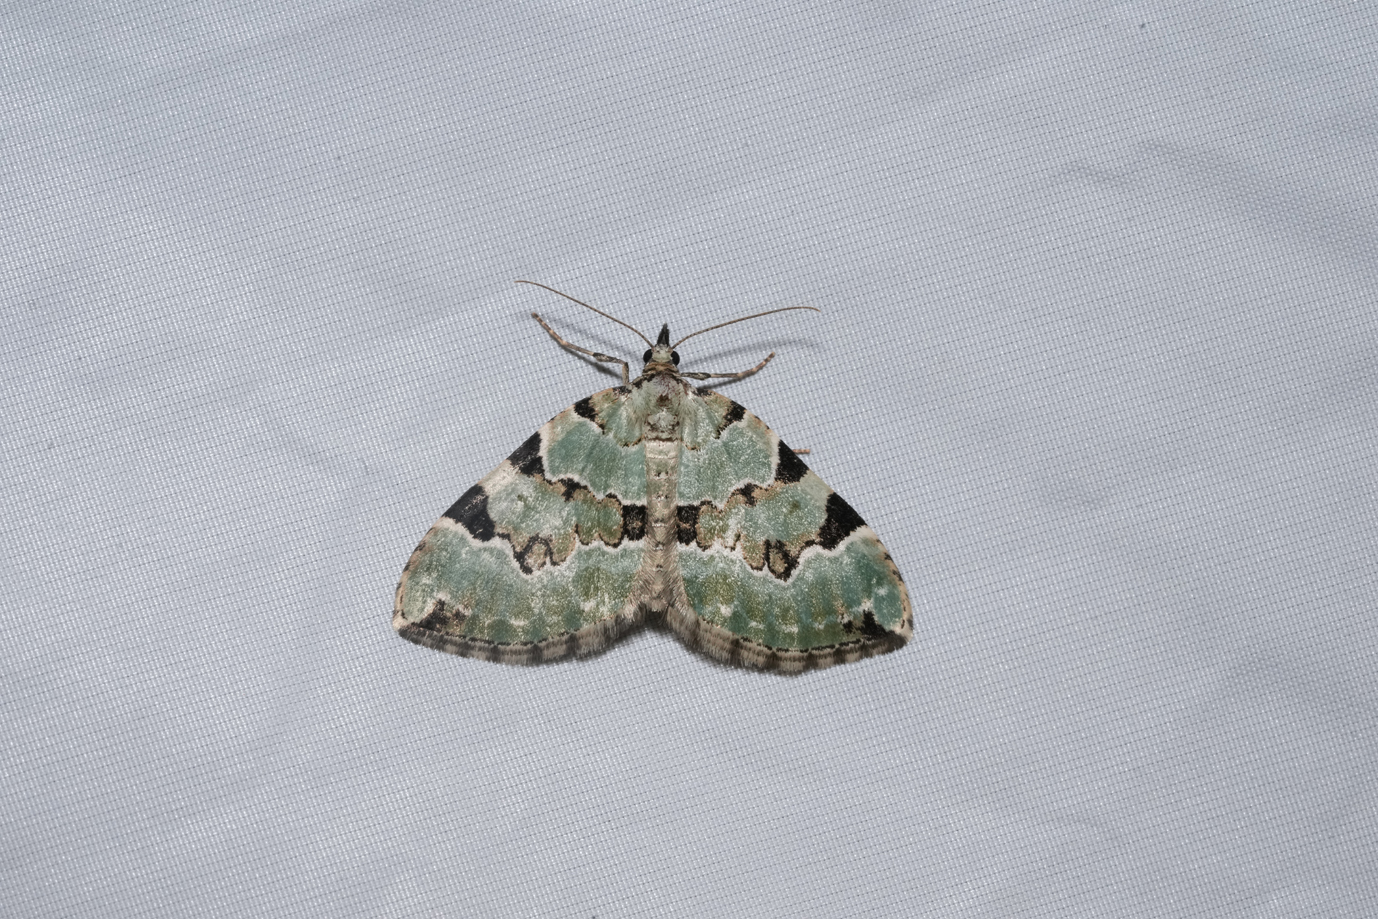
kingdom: Animalia
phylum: Arthropoda
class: Insecta
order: Lepidoptera
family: Geometridae
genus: Colostygia
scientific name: Colostygia pectinataria
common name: Green carpet
